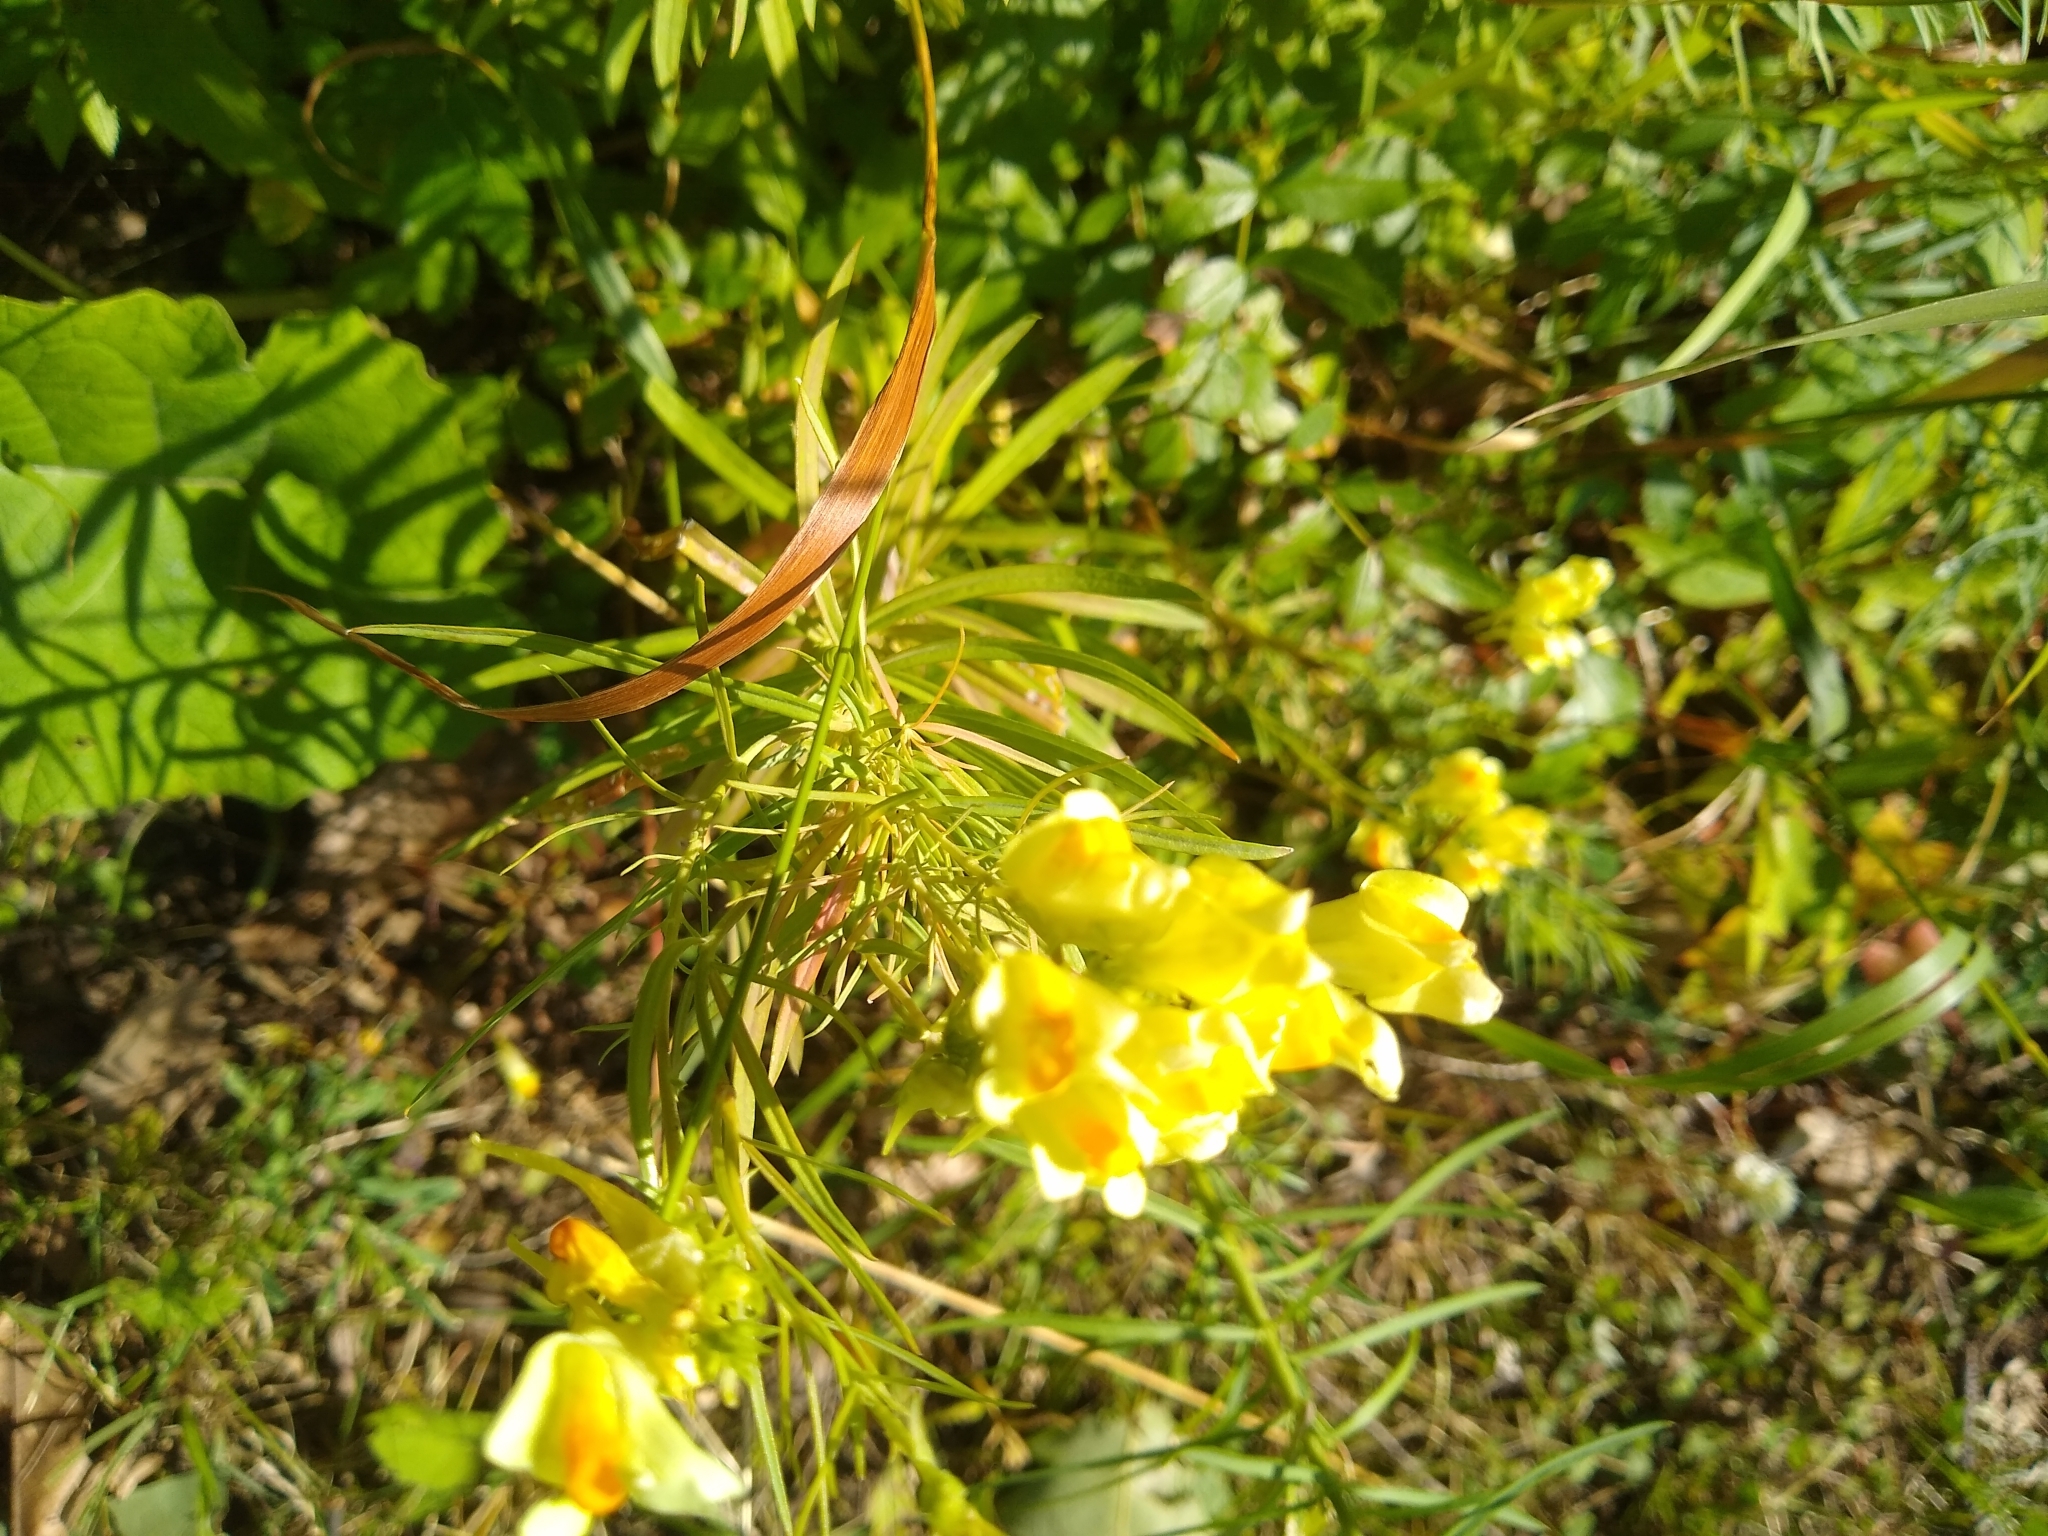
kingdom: Plantae
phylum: Tracheophyta
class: Magnoliopsida
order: Lamiales
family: Plantaginaceae
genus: Linaria
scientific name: Linaria vulgaris
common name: Butter and eggs
